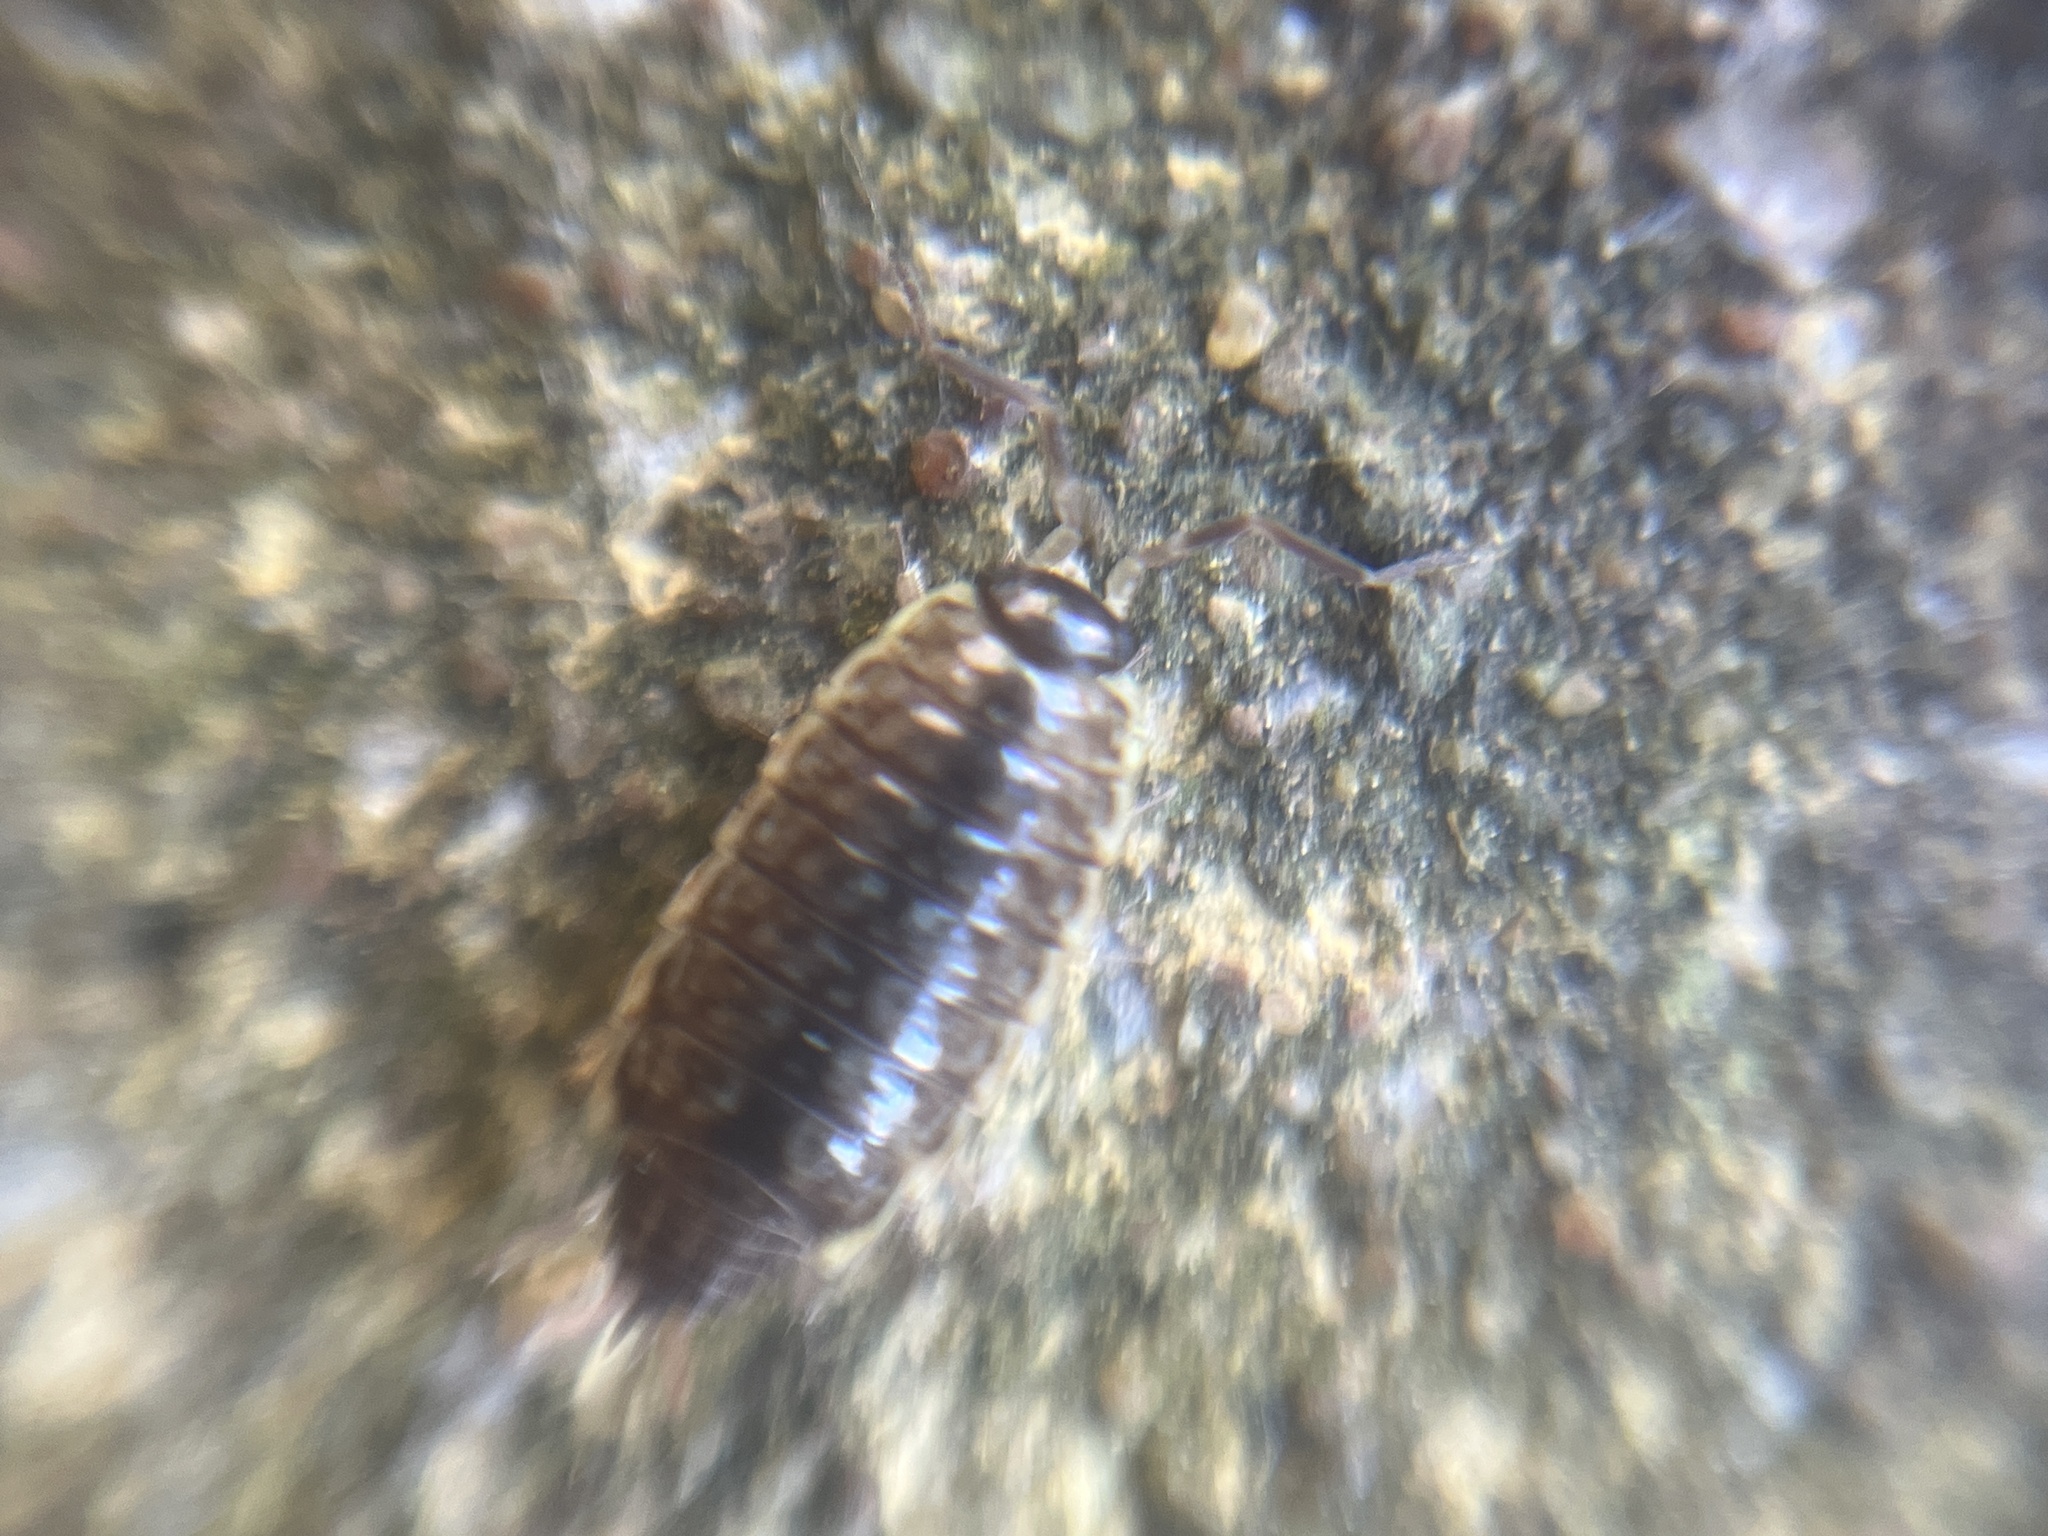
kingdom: Animalia
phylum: Arthropoda
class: Malacostraca
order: Isopoda
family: Philosciidae
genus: Philoscia
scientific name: Philoscia muscorum
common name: Common striped woodlouse
